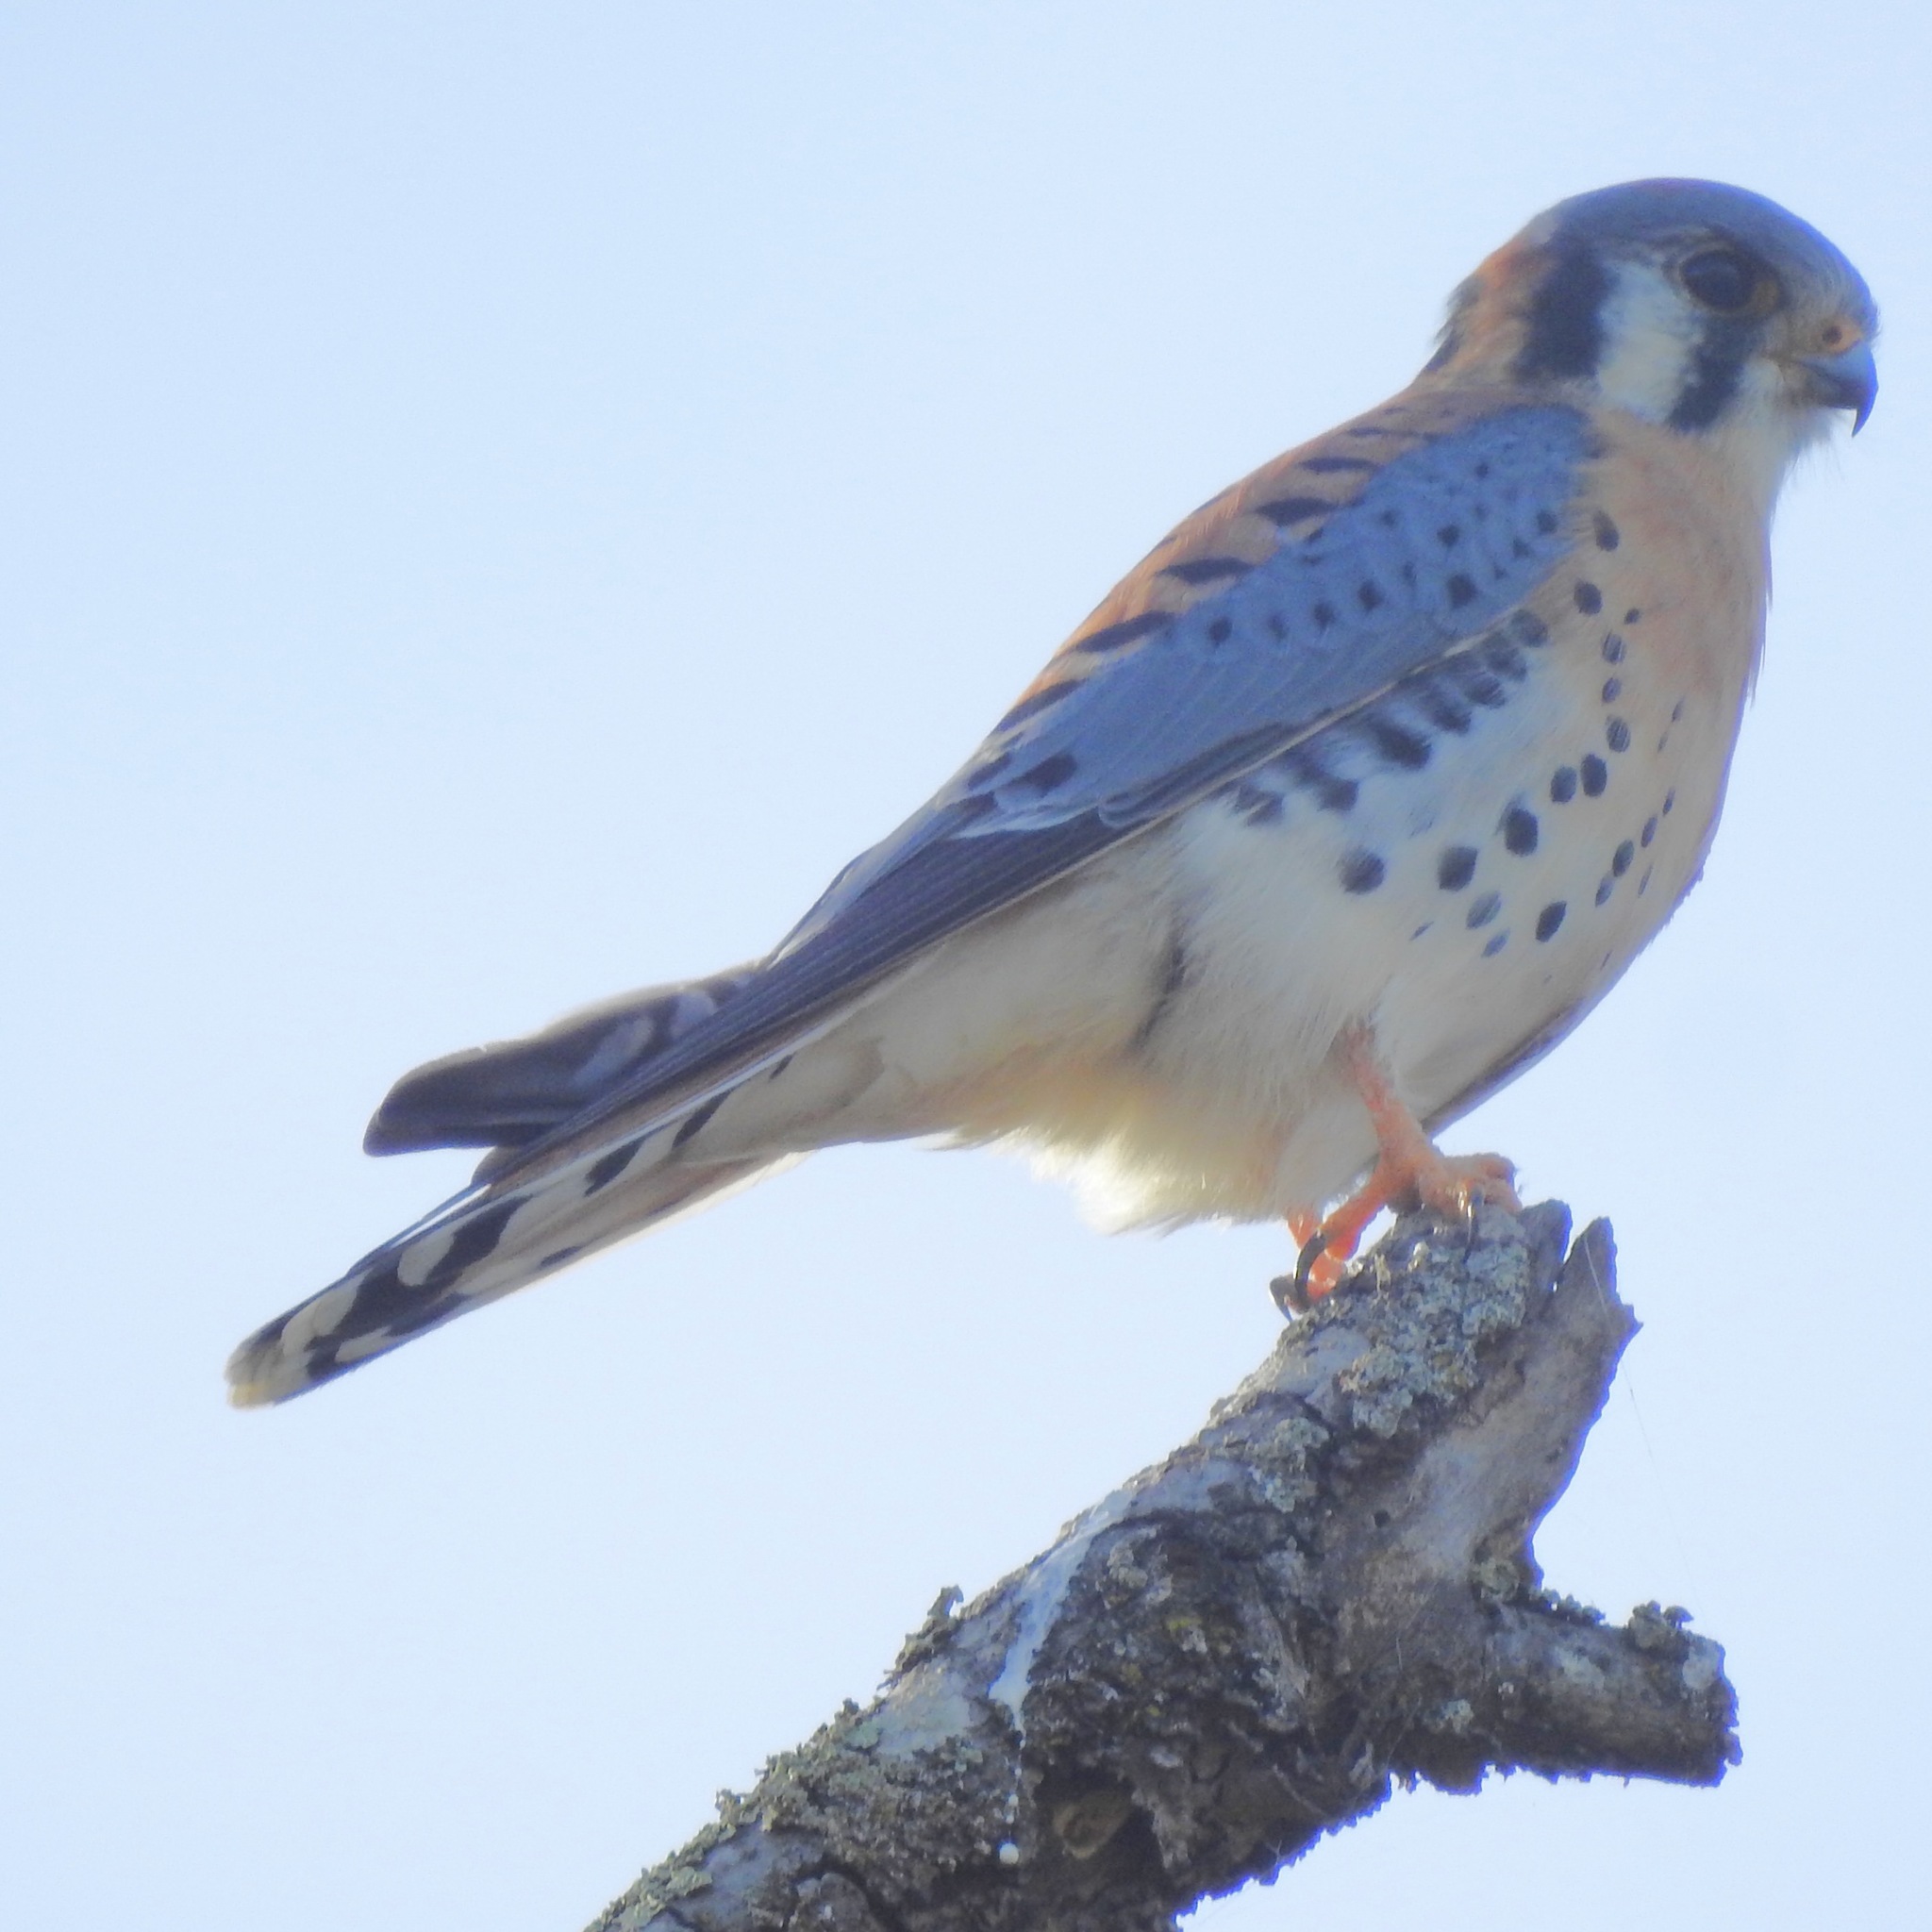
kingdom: Animalia
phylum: Chordata
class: Aves
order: Falconiformes
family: Falconidae
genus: Falco
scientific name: Falco sparverius
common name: American kestrel
